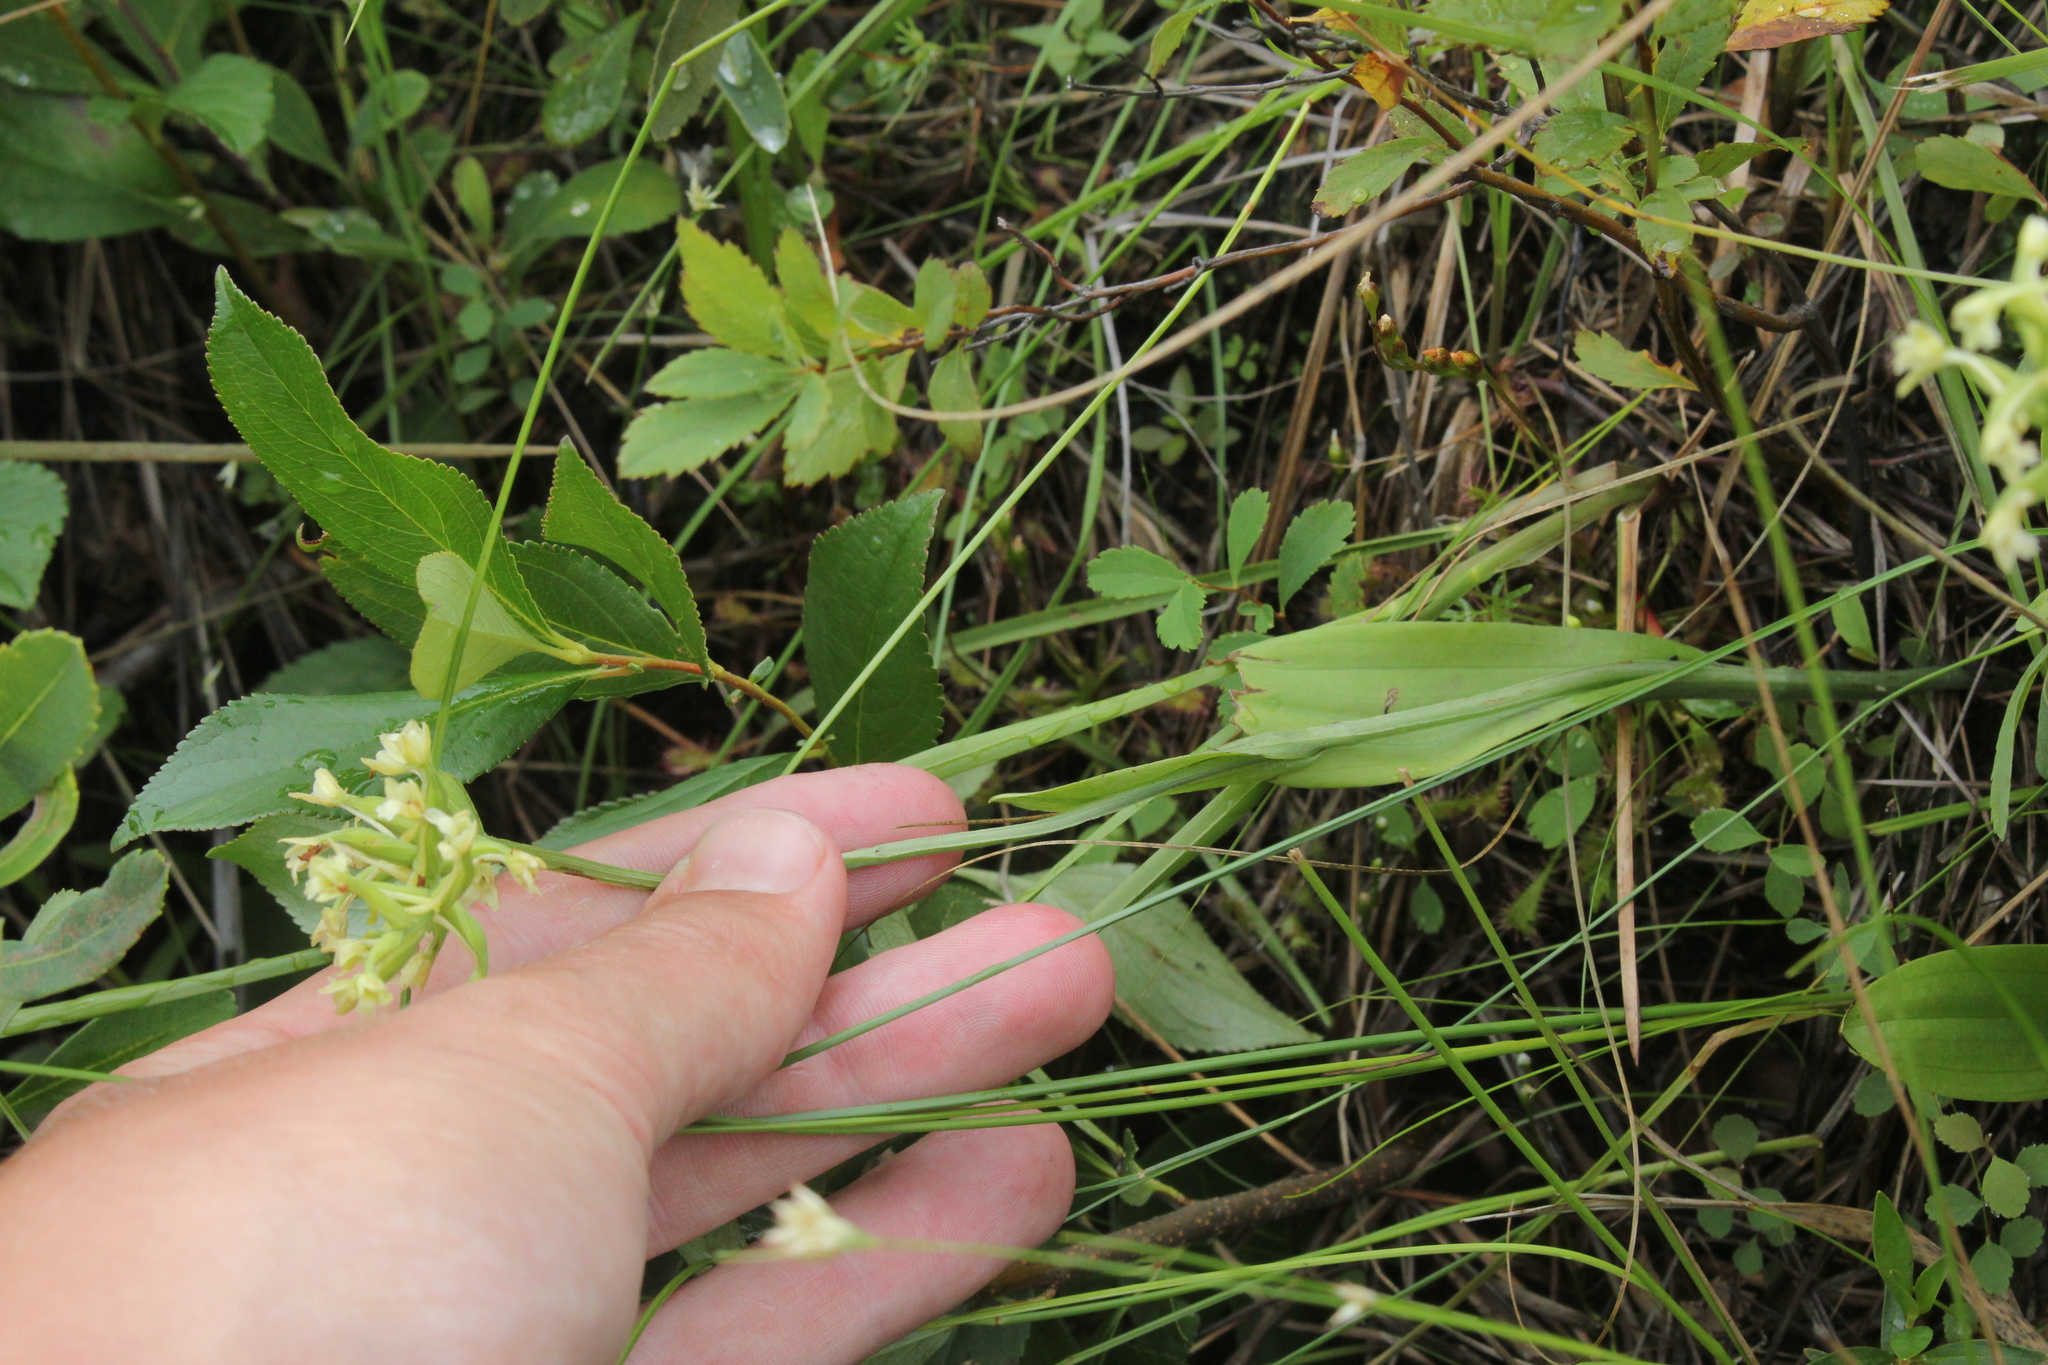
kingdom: Plantae
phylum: Tracheophyta
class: Liliopsida
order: Asparagales
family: Orchidaceae
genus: Platanthera
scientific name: Platanthera clavellata
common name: Club-spur orchid
